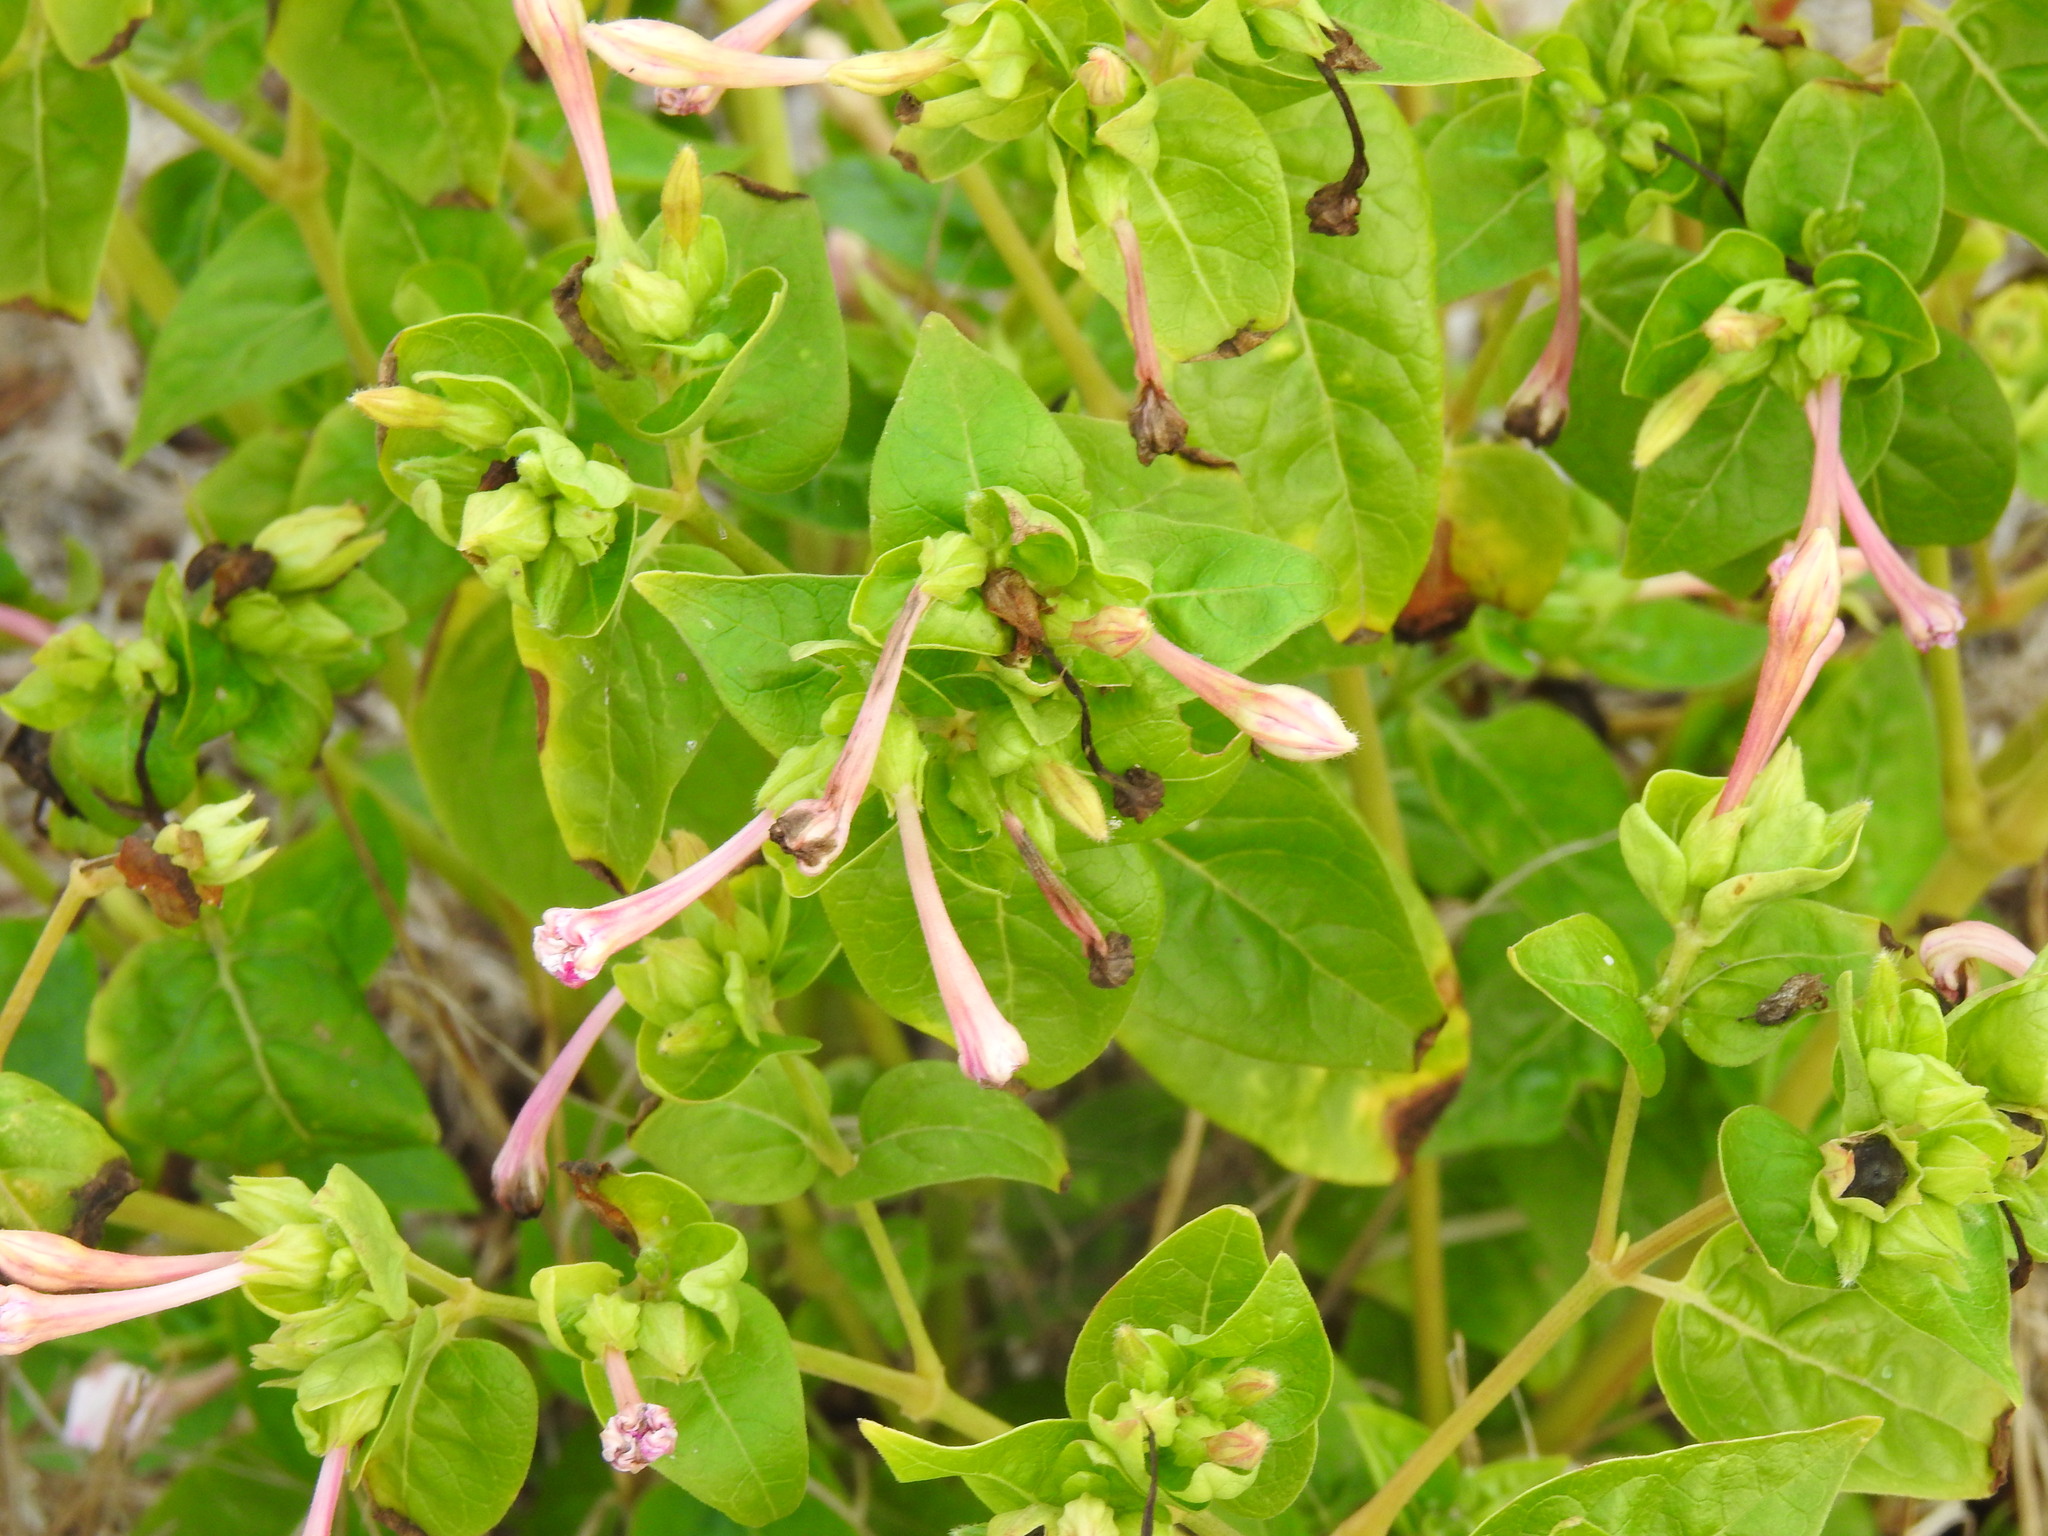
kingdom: Plantae
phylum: Tracheophyta
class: Magnoliopsida
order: Caryophyllales
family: Nyctaginaceae
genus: Mirabilis
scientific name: Mirabilis jalapa
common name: Marvel-of-peru
